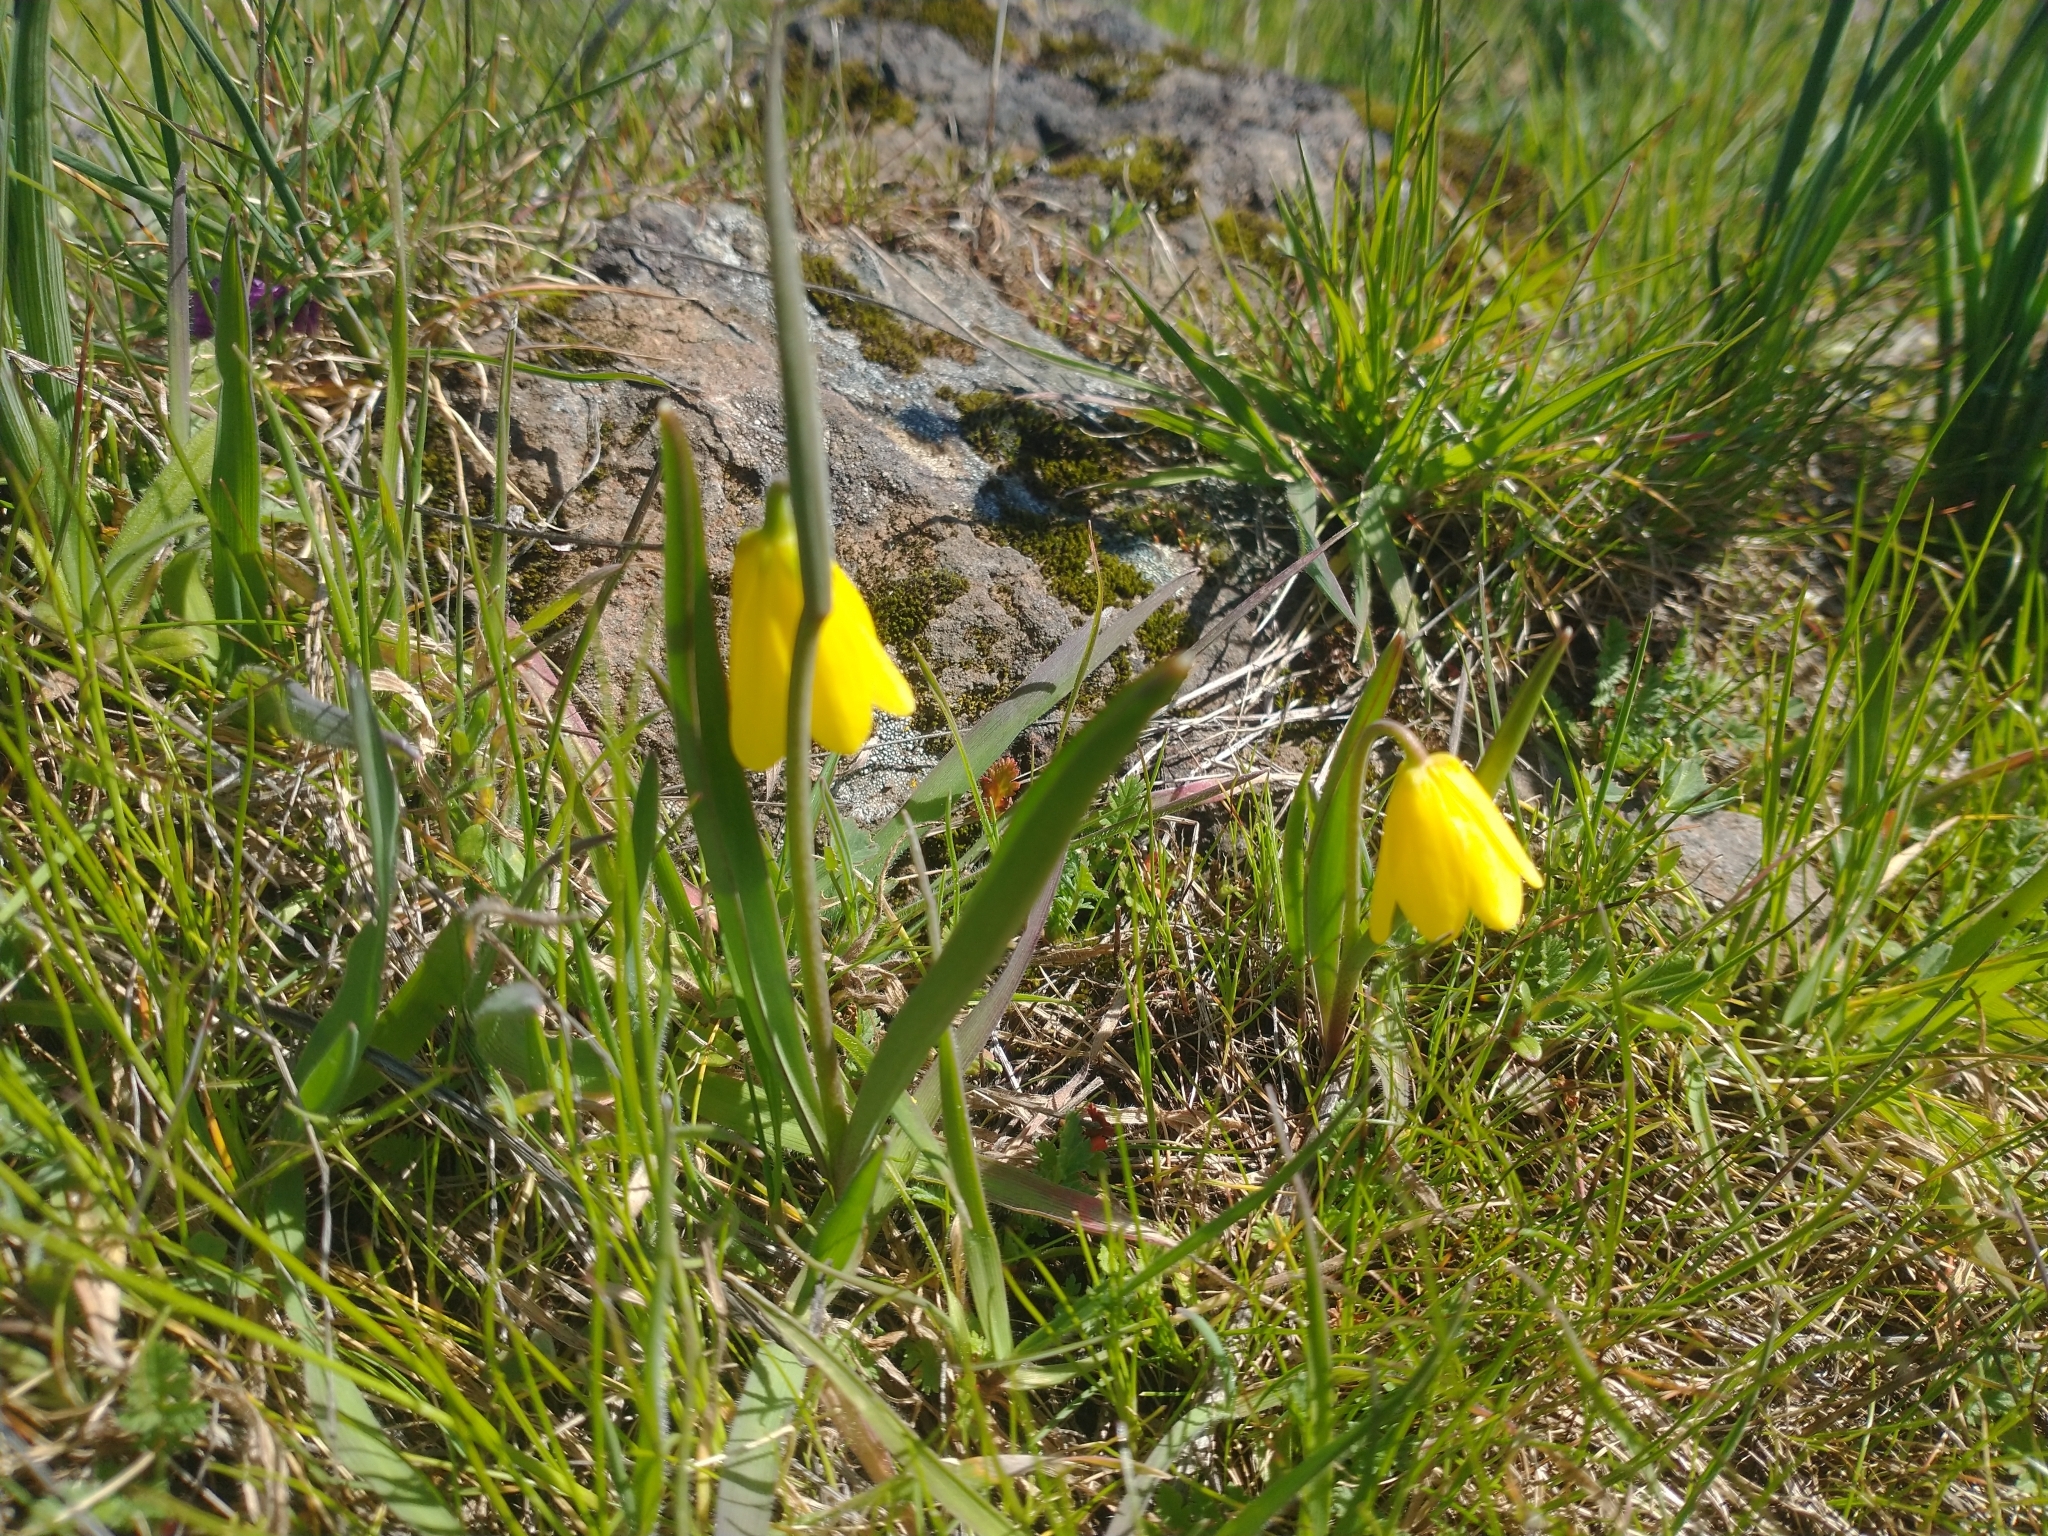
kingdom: Plantae
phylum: Tracheophyta
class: Liliopsida
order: Liliales
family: Liliaceae
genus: Fritillaria
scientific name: Fritillaria pudica
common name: Yellow fritillary
